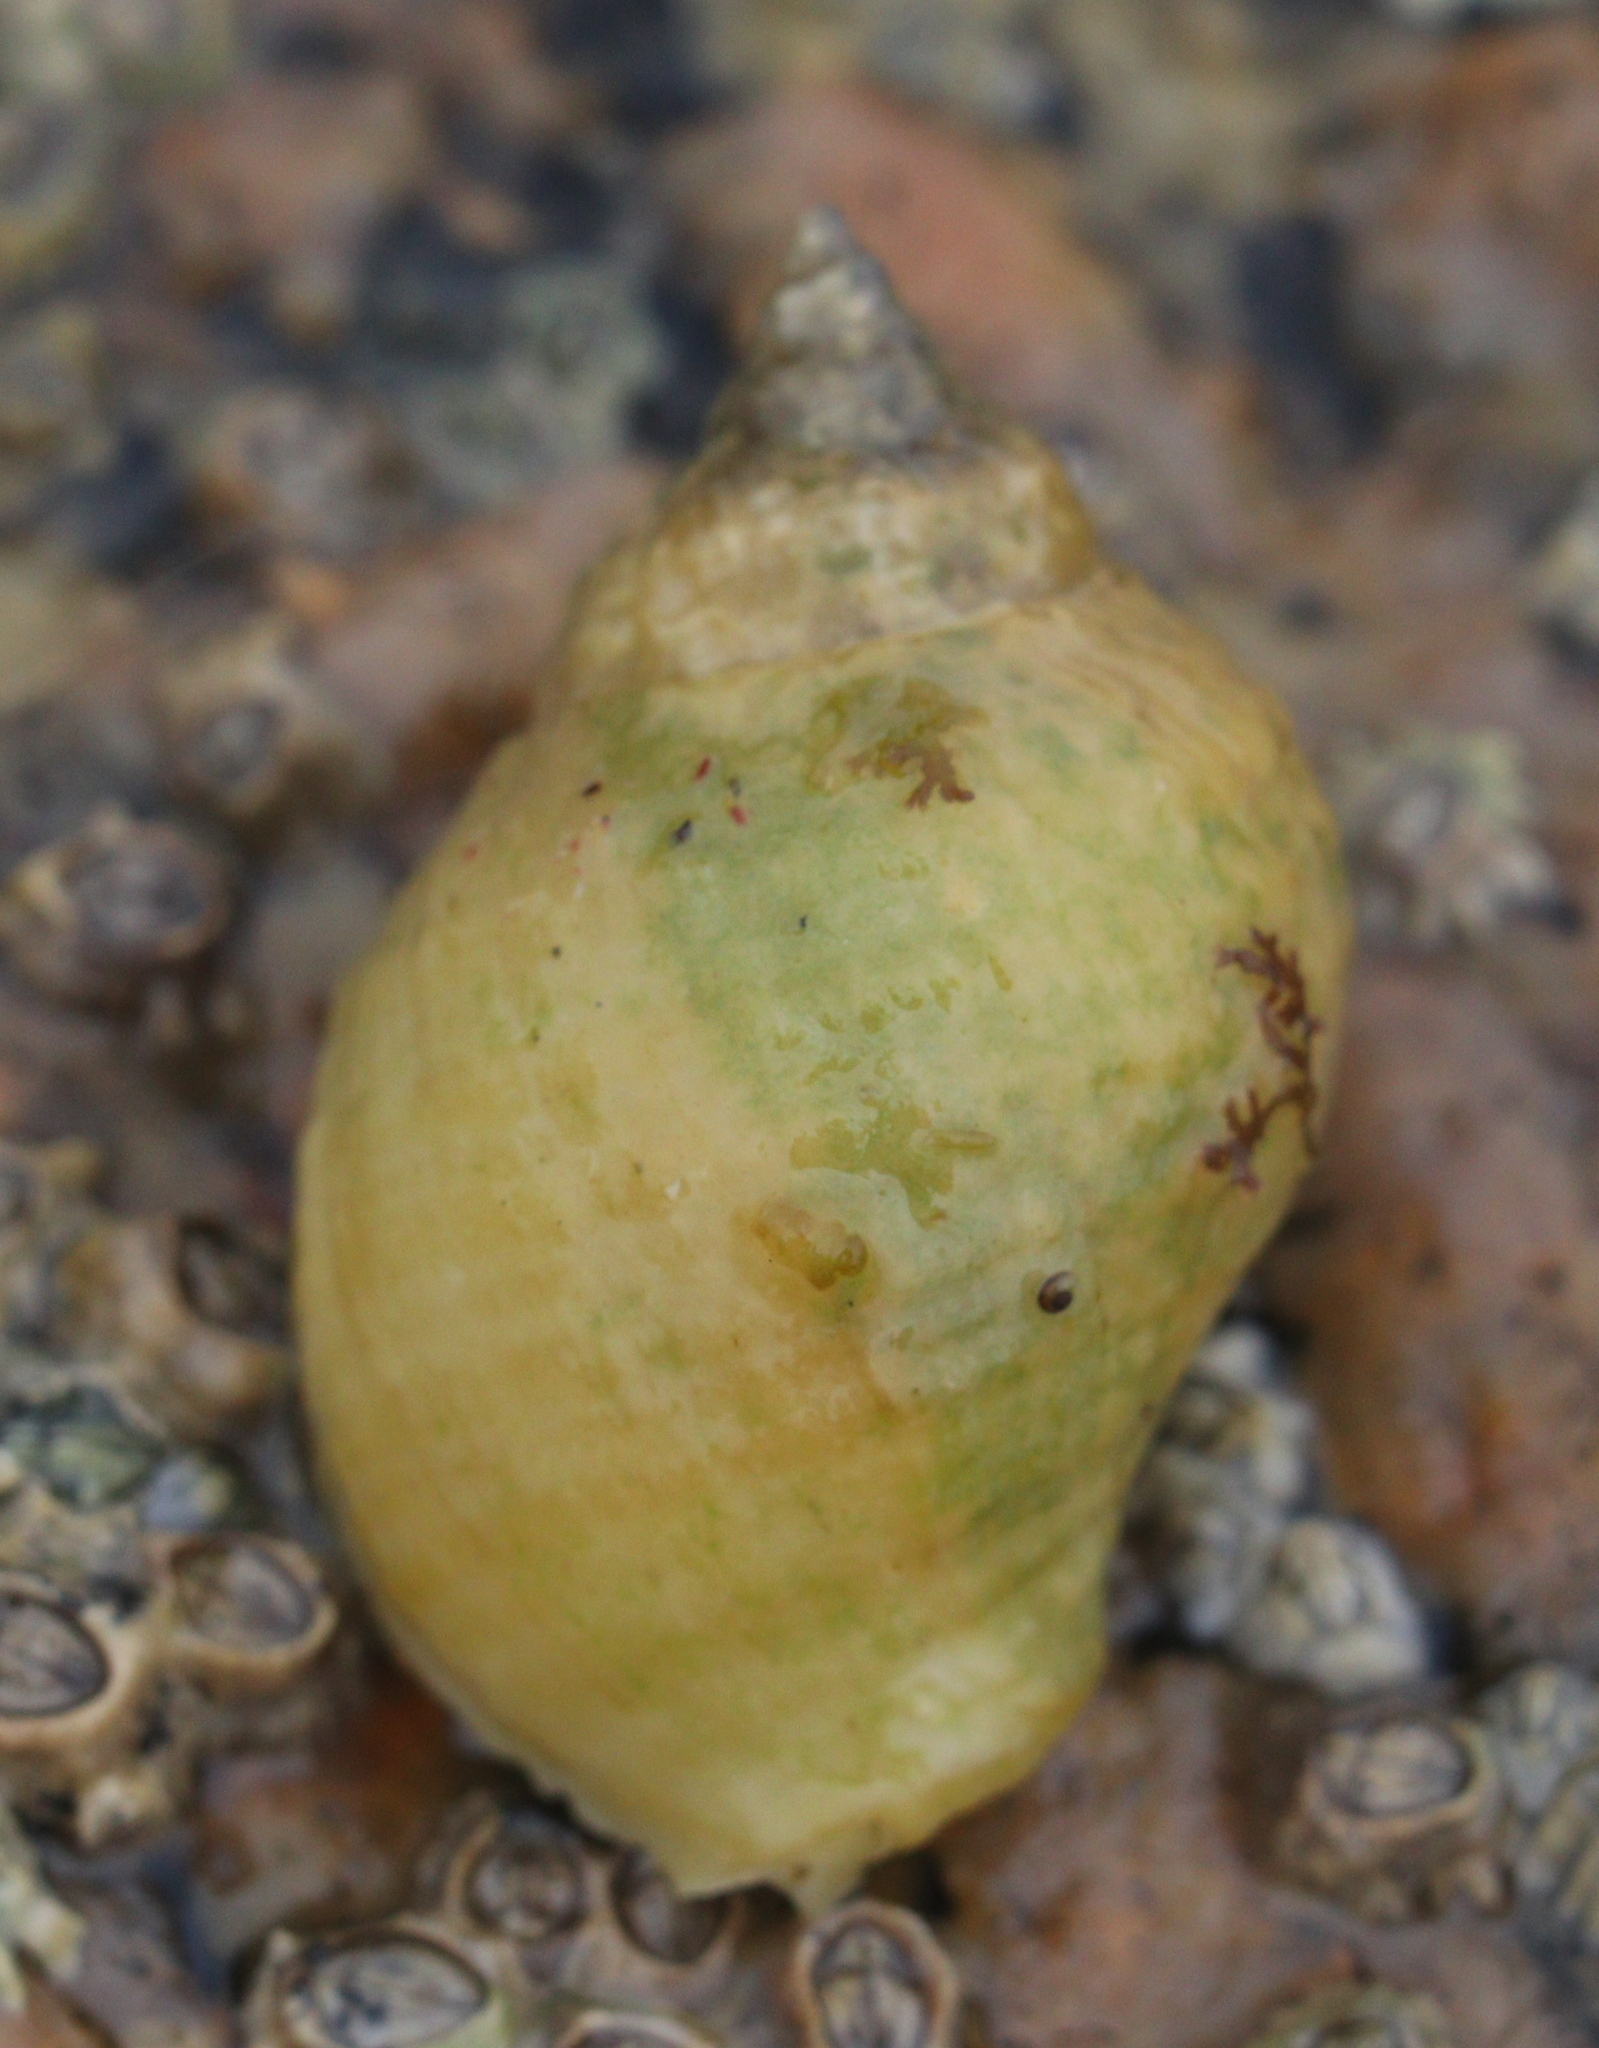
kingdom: Animalia
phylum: Mollusca
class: Gastropoda
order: Neogastropoda
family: Muricidae
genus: Nucella
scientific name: Nucella lapillus
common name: Dog whelk
